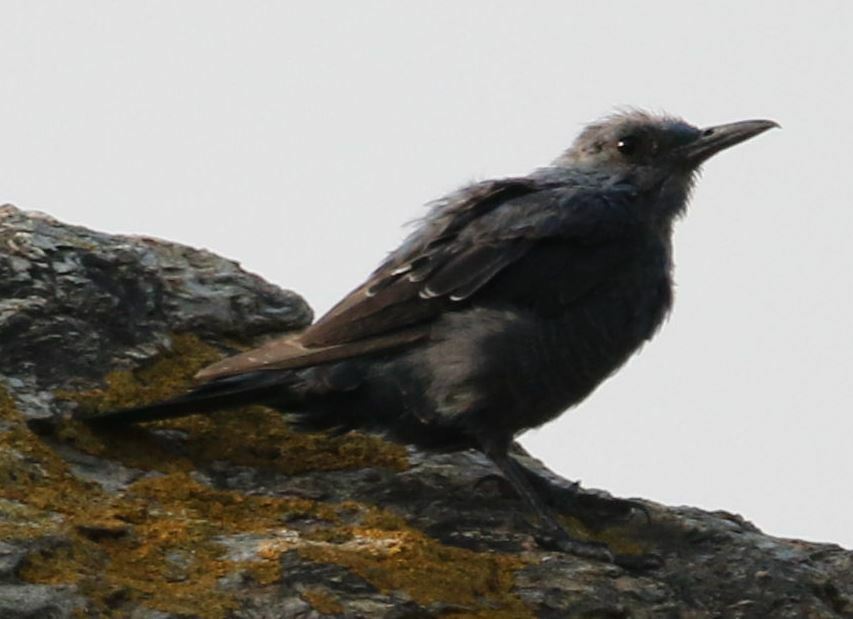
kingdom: Animalia
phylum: Chordata
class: Aves
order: Passeriformes
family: Muscicapidae
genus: Monticola
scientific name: Monticola solitarius
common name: Blue rock thrush
